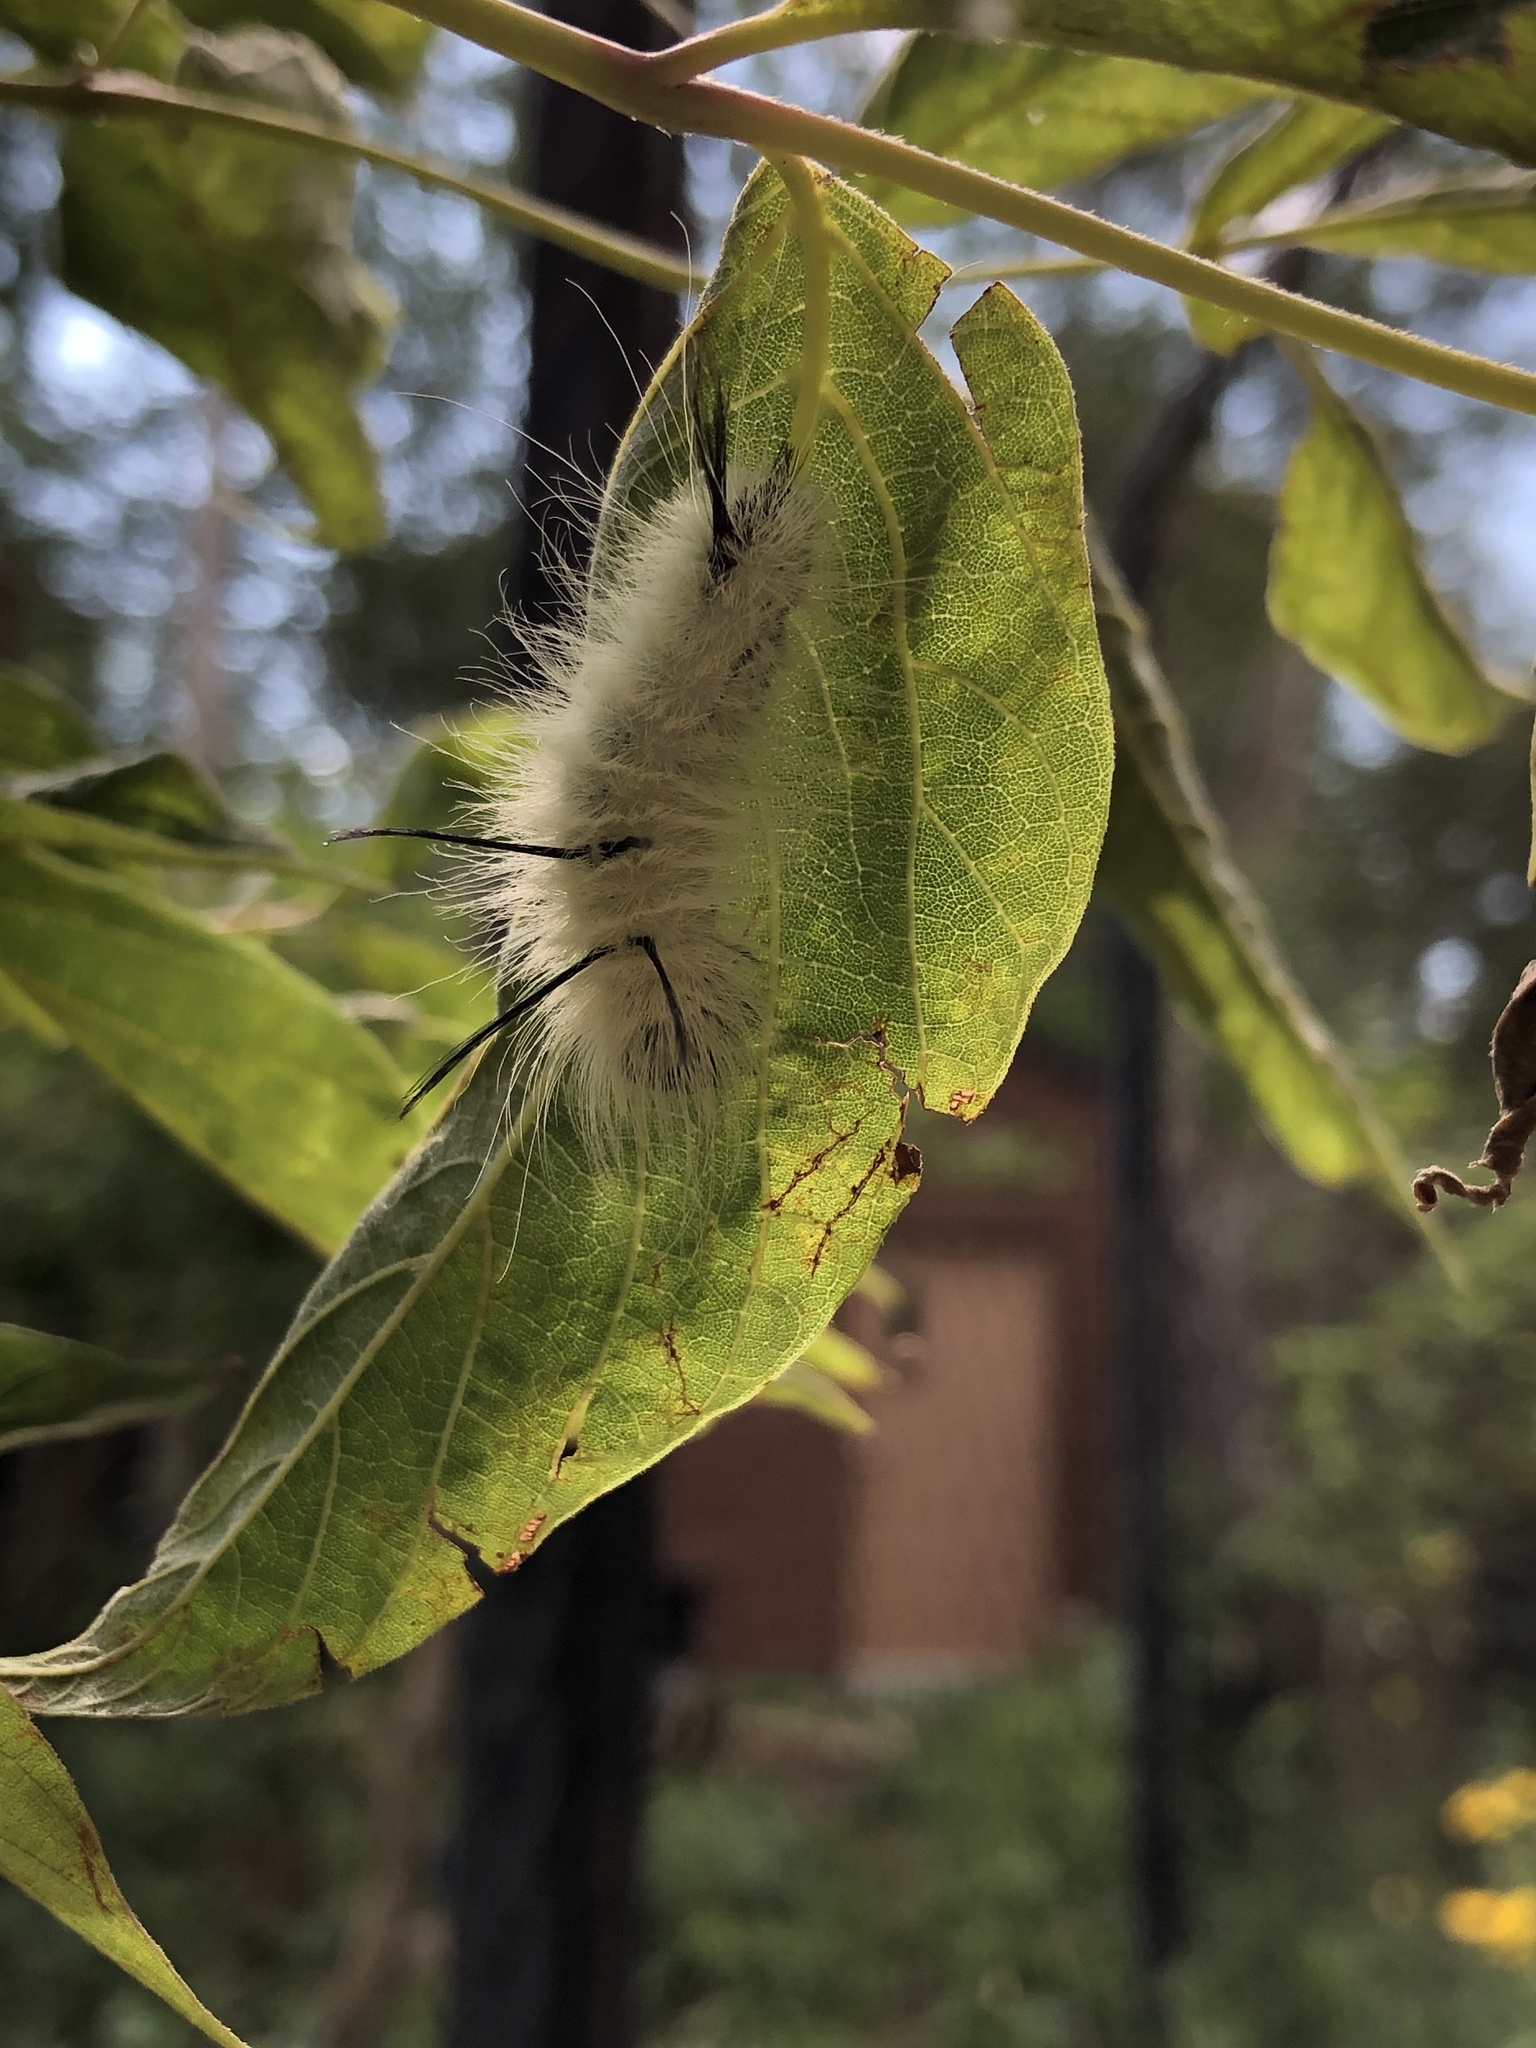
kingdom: Animalia
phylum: Arthropoda
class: Insecta
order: Lepidoptera
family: Noctuidae
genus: Acronicta
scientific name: Acronicta americana
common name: American dagger
